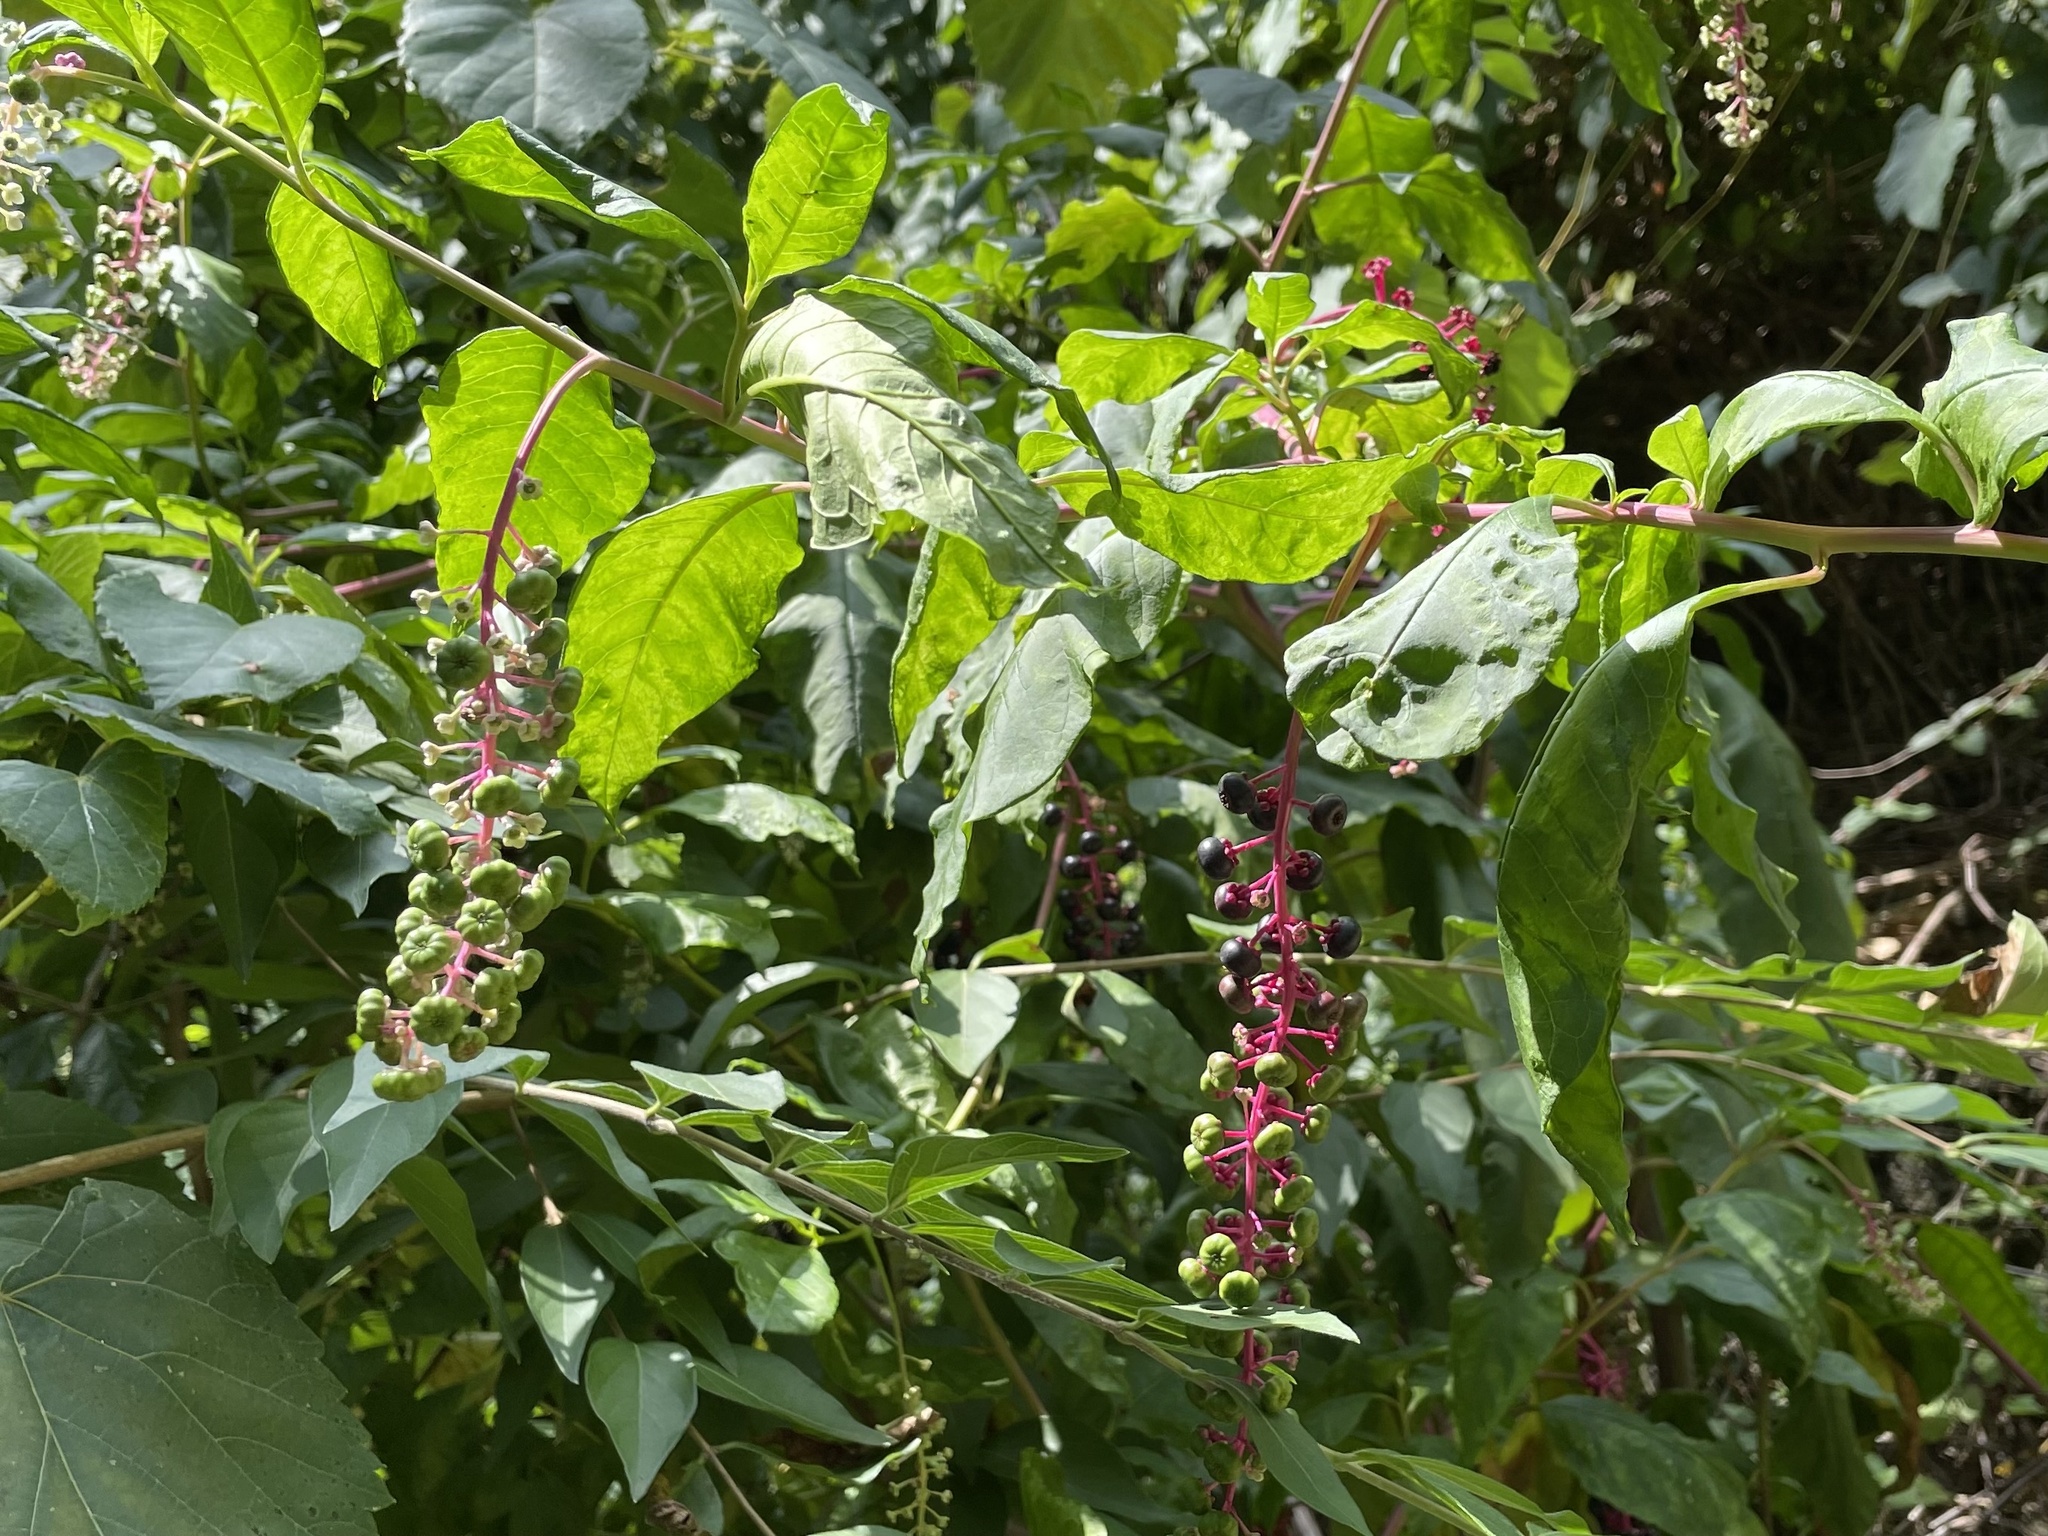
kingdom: Plantae
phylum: Tracheophyta
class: Magnoliopsida
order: Caryophyllales
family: Phytolaccaceae
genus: Phytolacca
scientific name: Phytolacca americana
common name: American pokeweed
